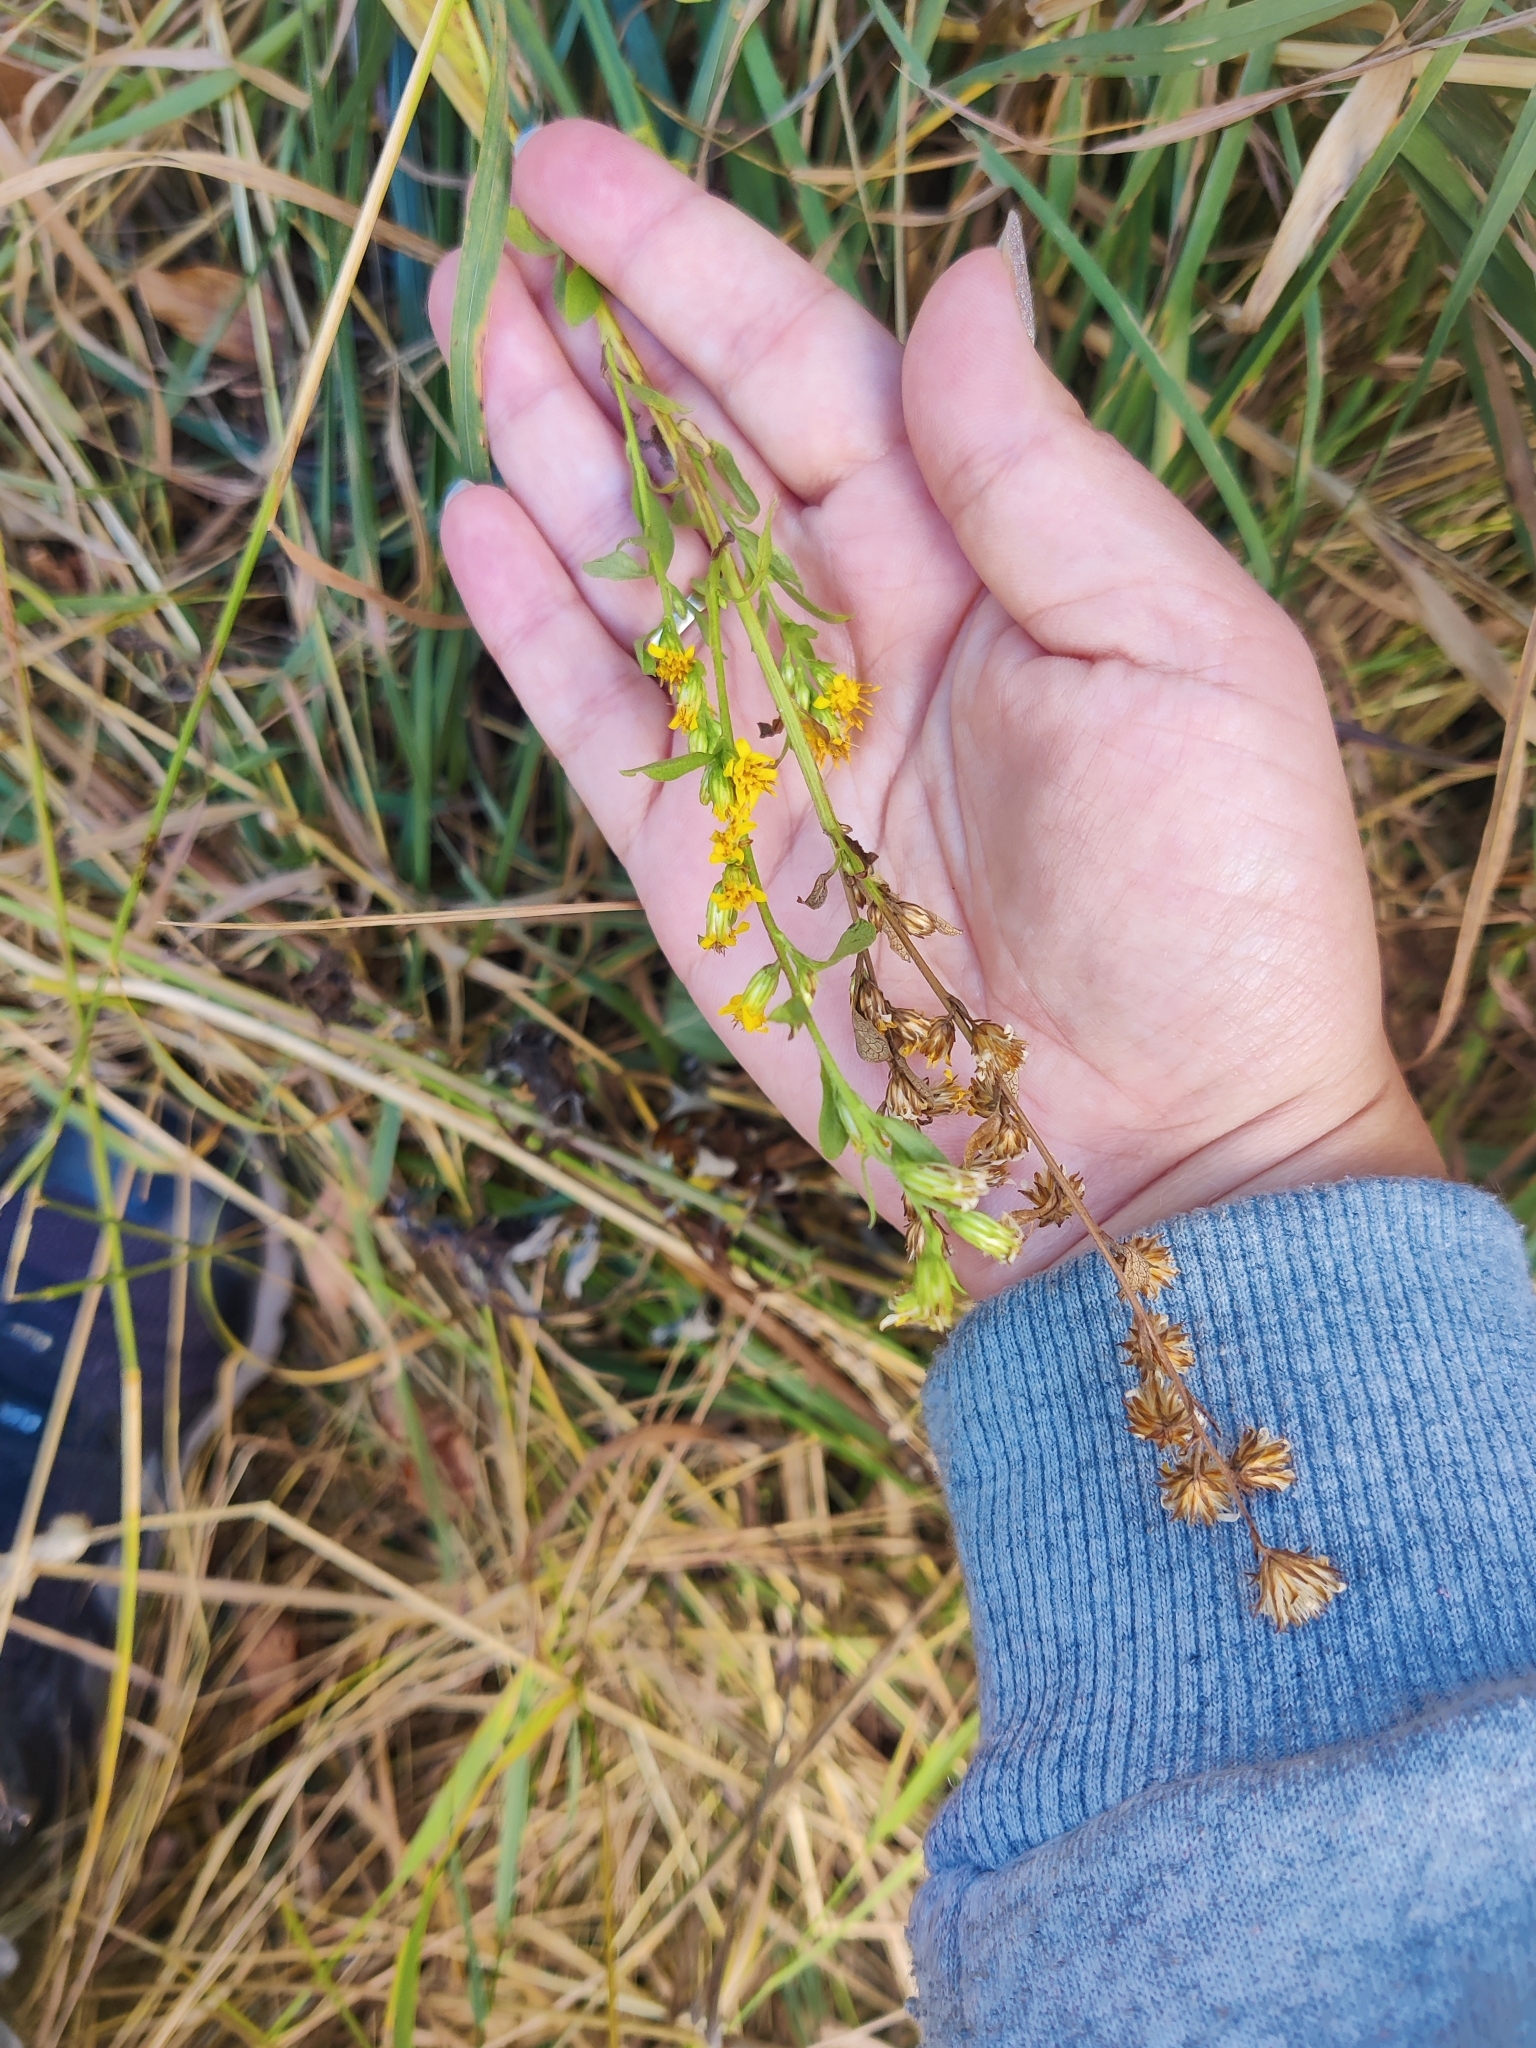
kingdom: Plantae
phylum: Tracheophyta
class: Magnoliopsida
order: Asterales
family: Asteraceae
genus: Solidago
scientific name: Solidago virgaurea
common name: Goldenrod
